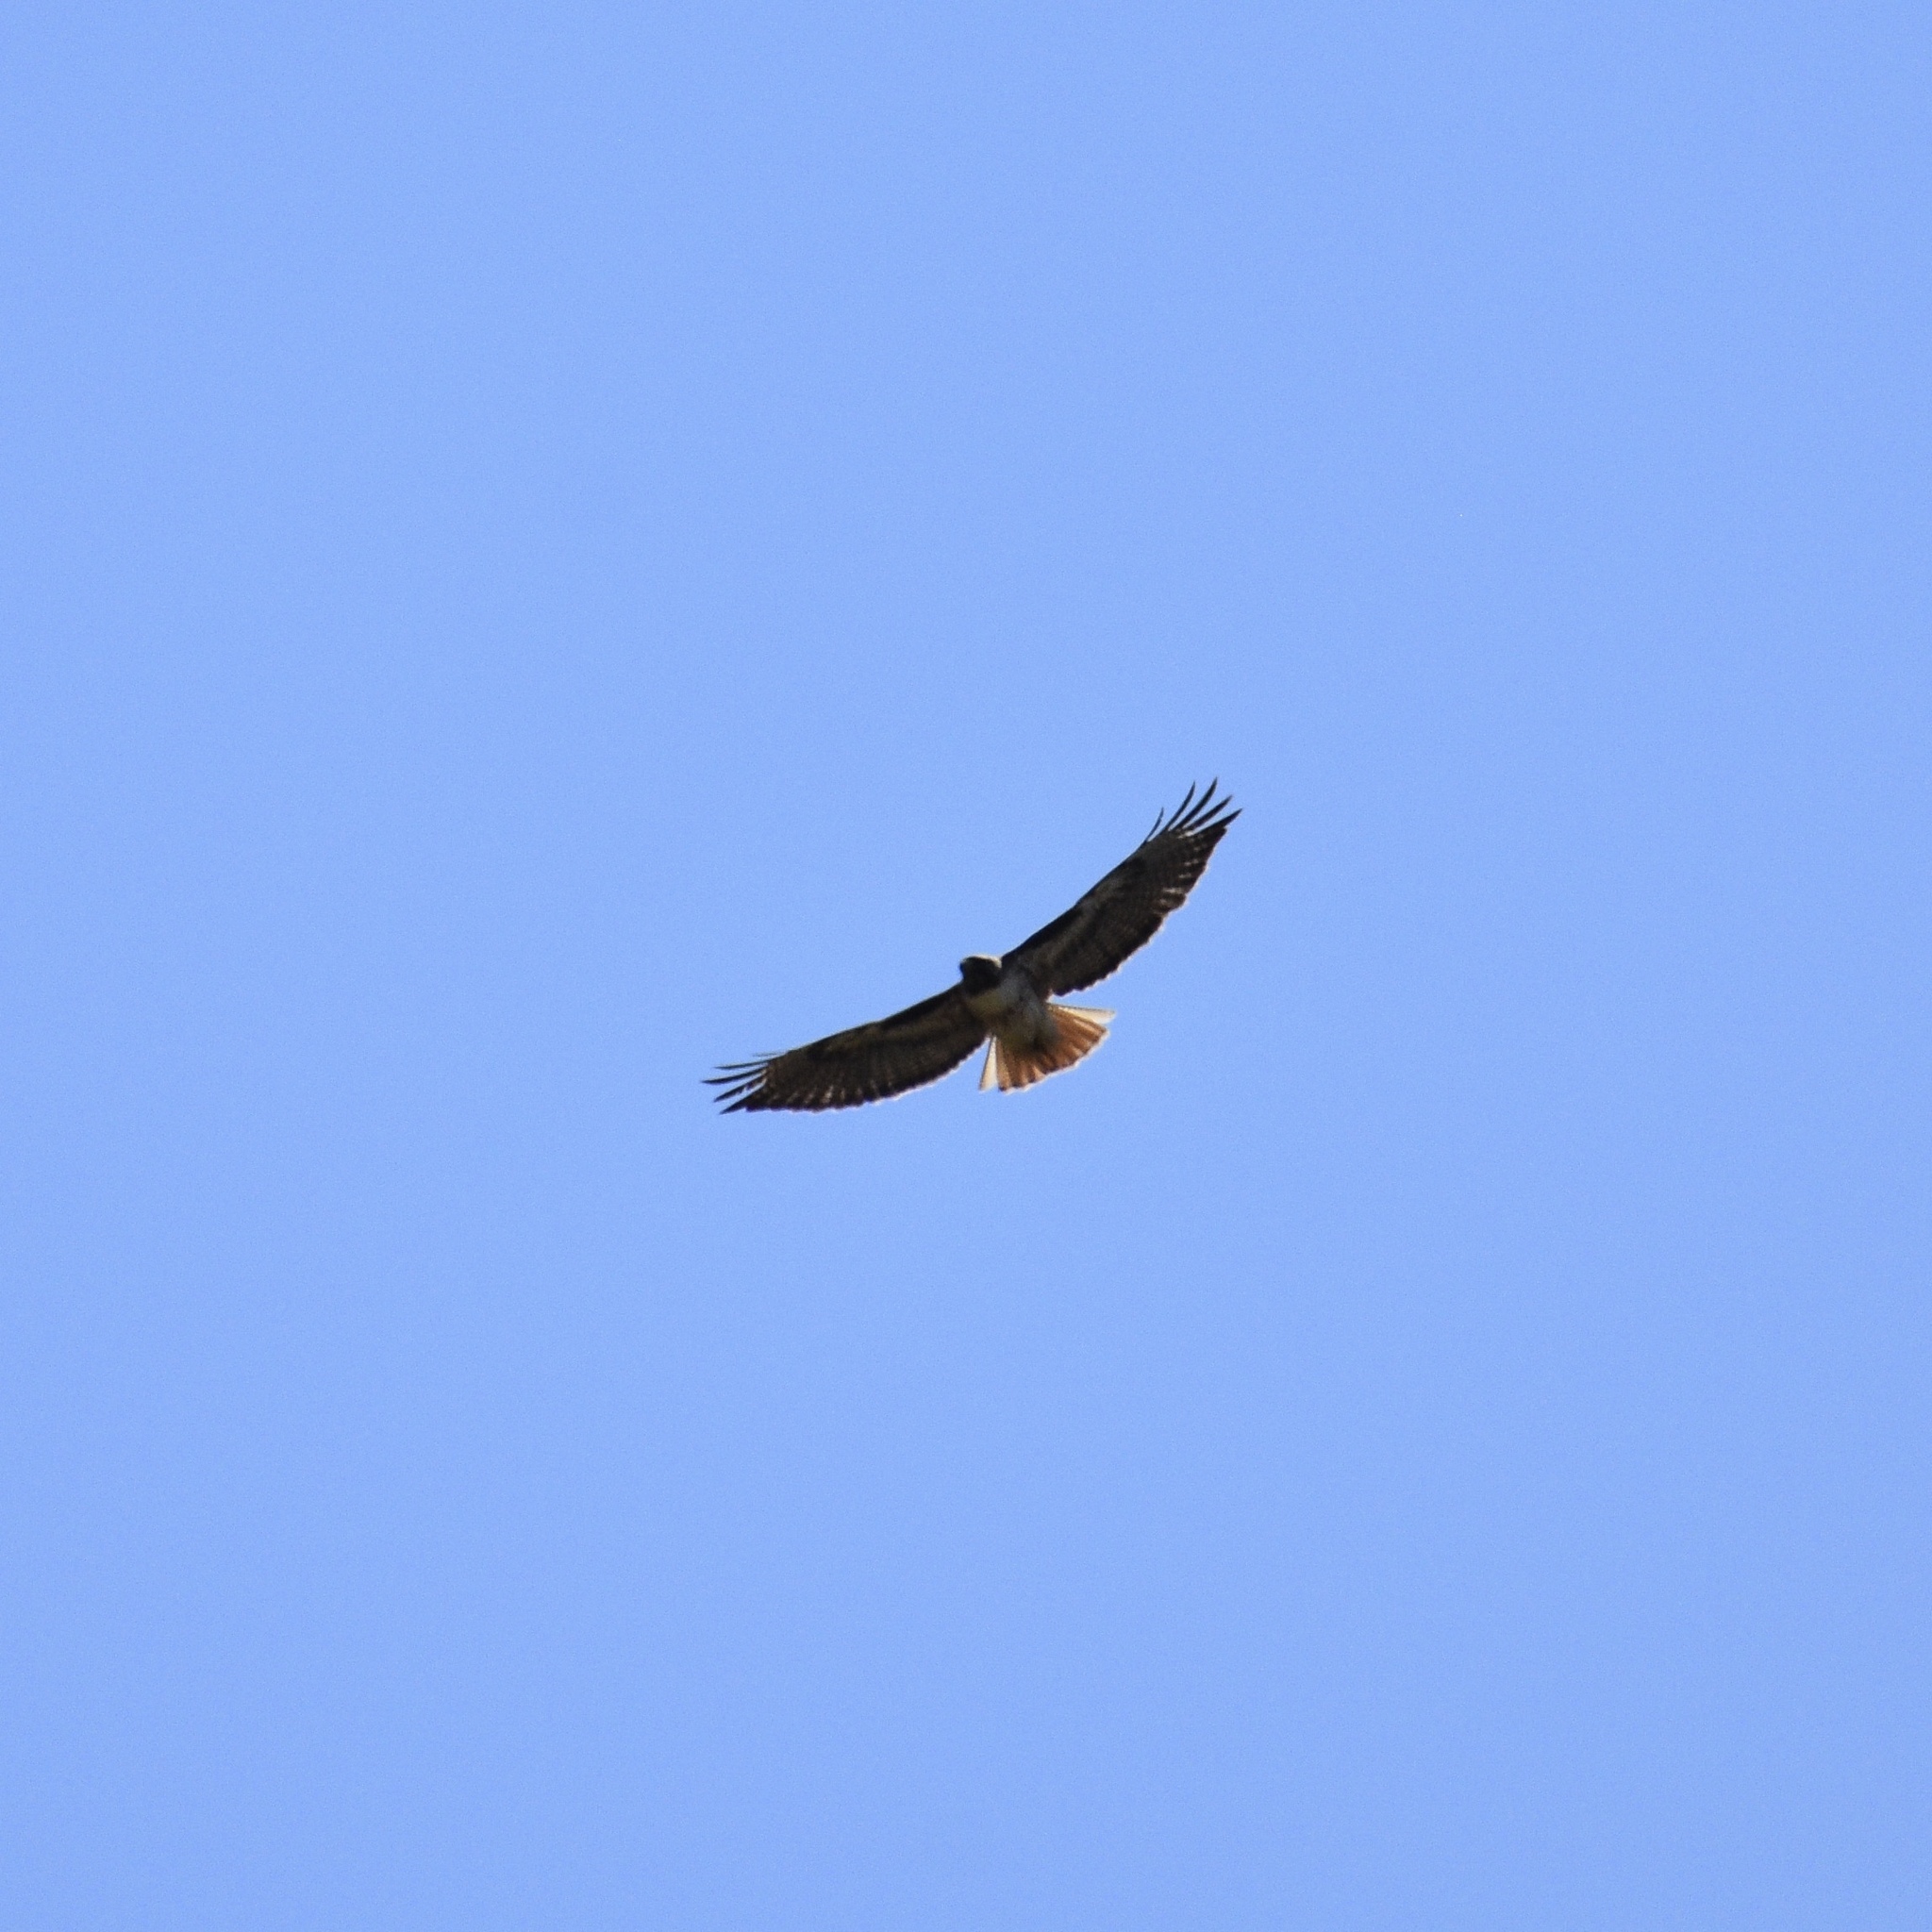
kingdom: Animalia
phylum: Chordata
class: Aves
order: Accipitriformes
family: Accipitridae
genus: Buteo
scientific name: Buteo jamaicensis
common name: Red-tailed hawk
